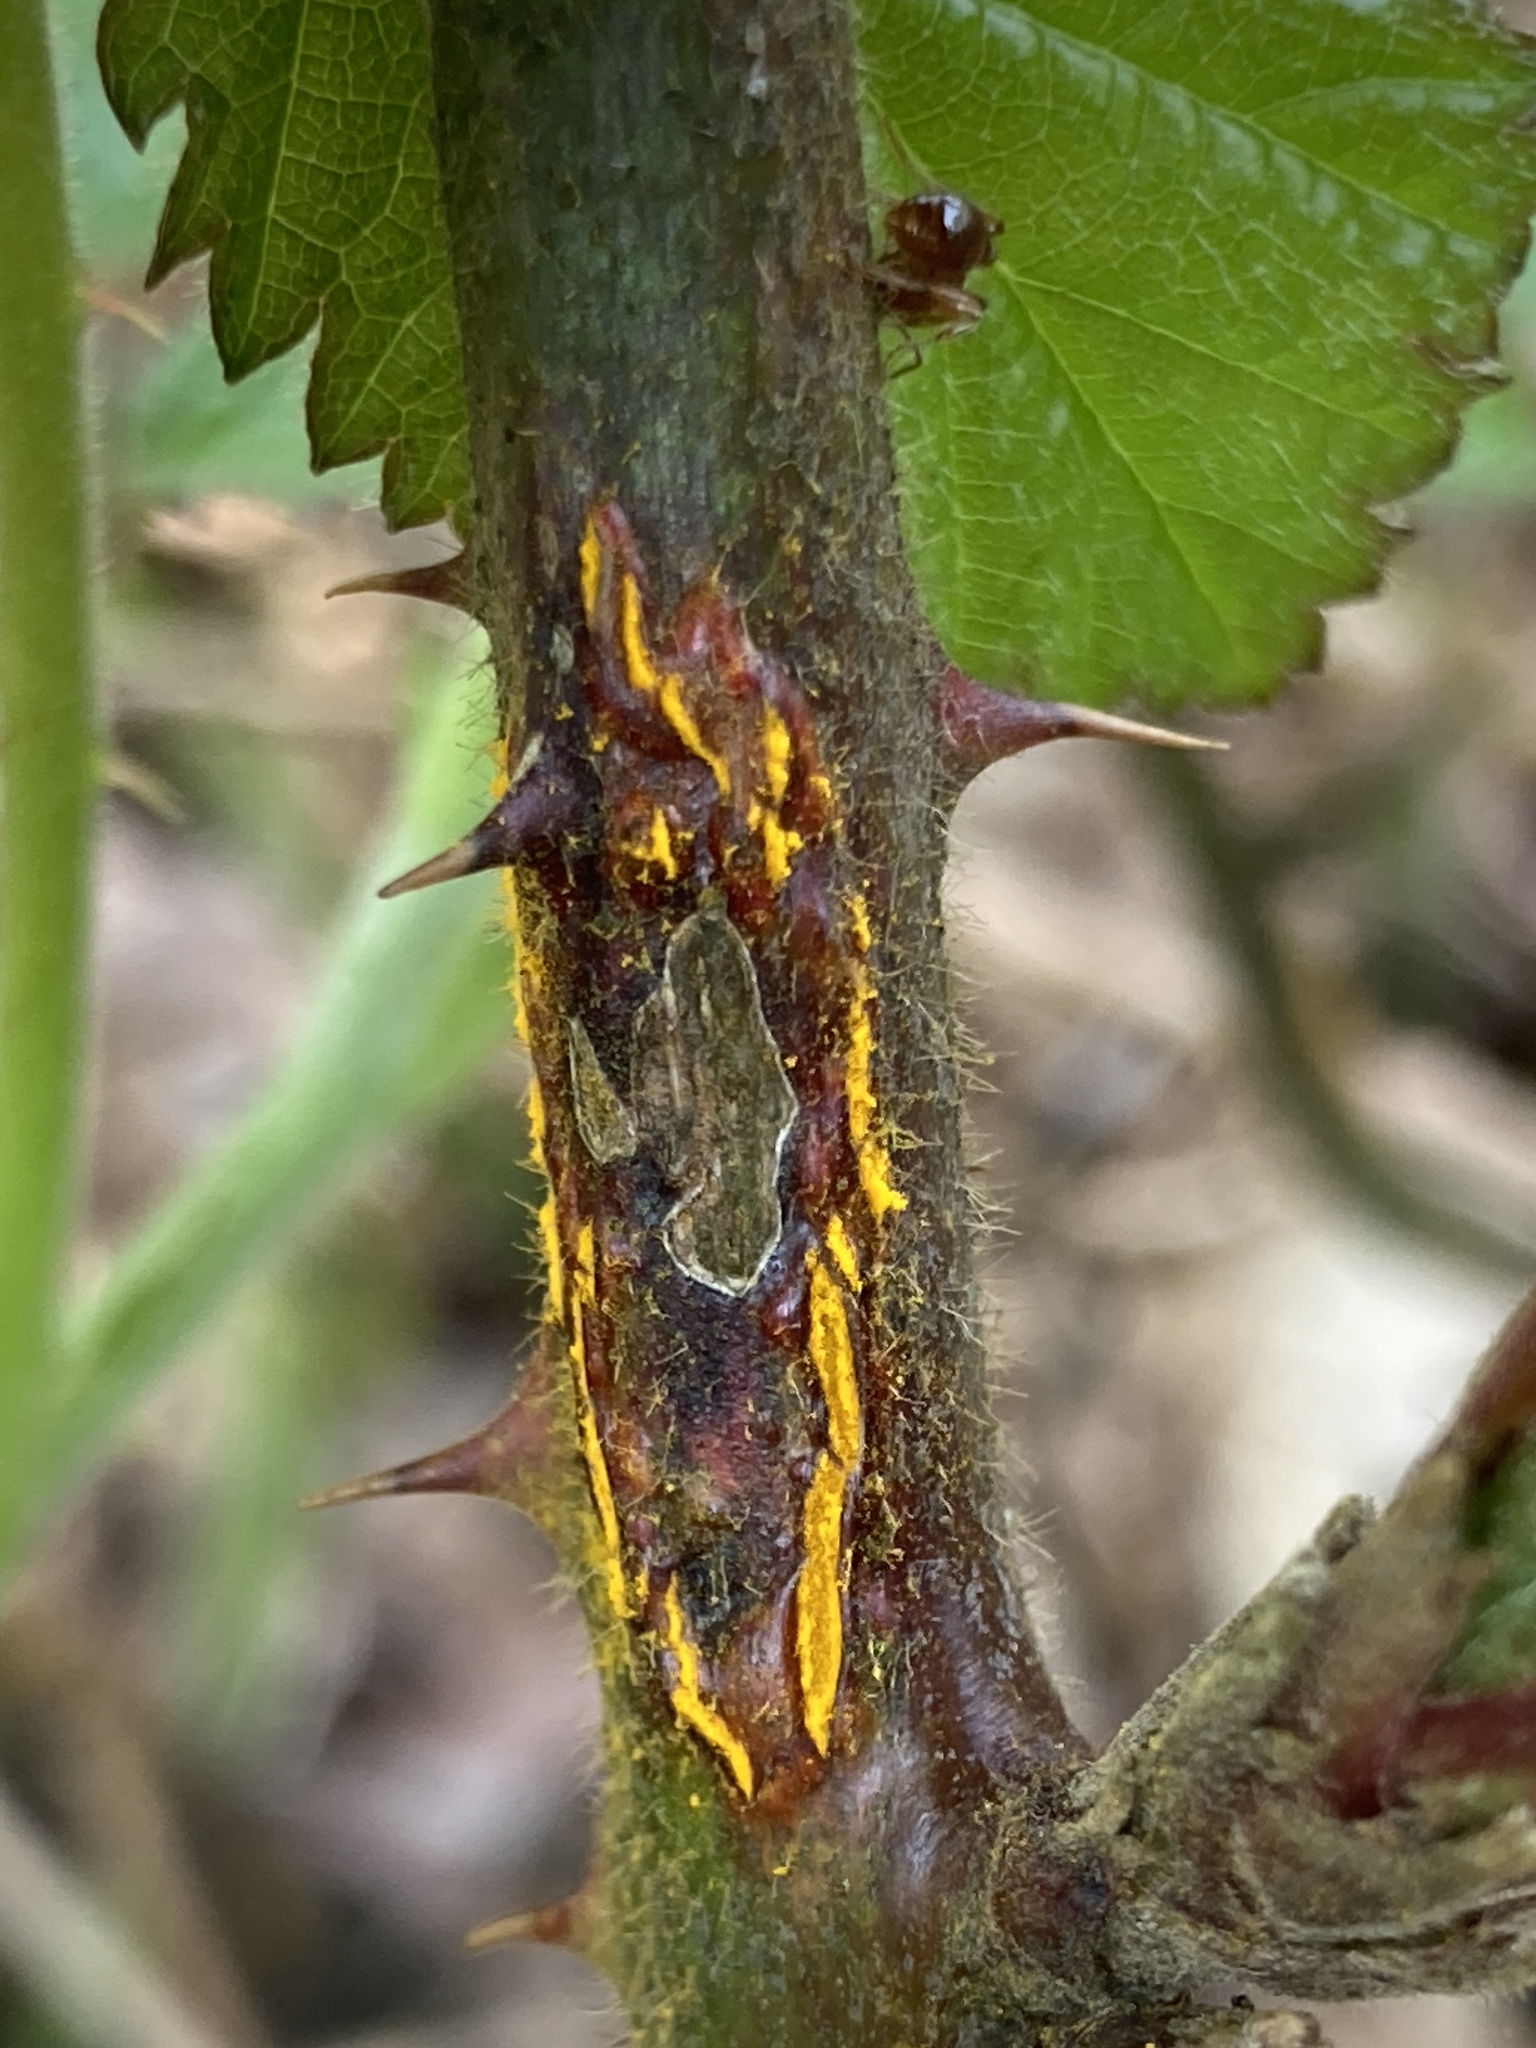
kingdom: Fungi
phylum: Basidiomycota
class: Pucciniomycetes
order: Pucciniales
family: Phragmidiaceae
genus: Kuehneola
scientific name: Kuehneola uredinis
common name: Bramble stem rust
